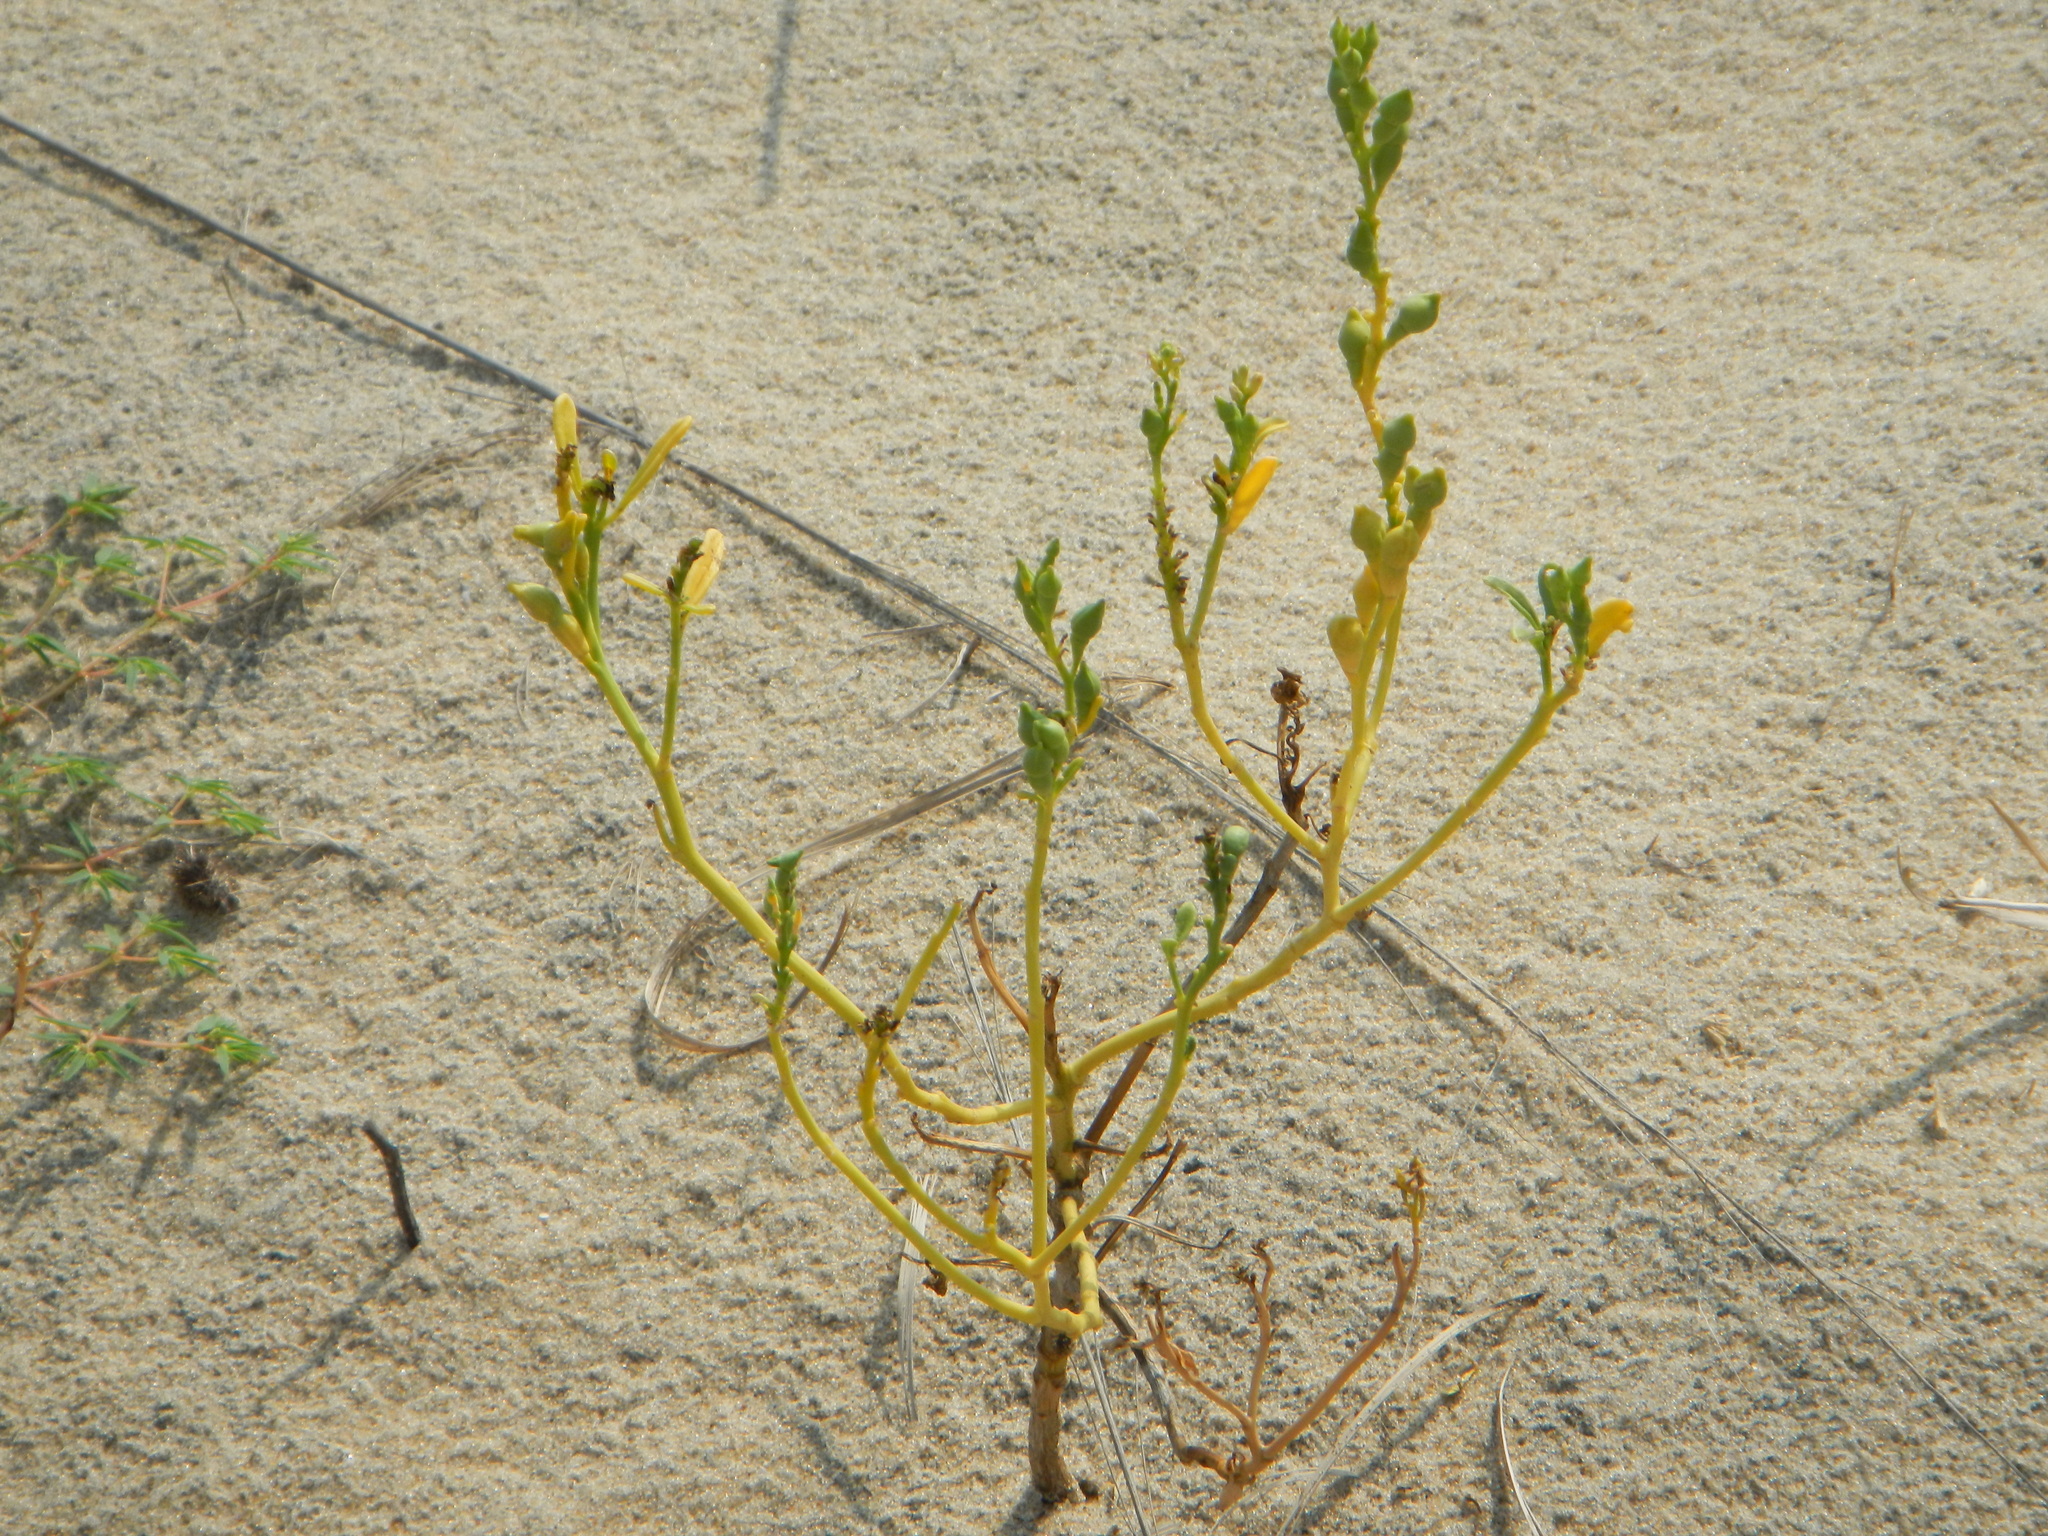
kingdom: Plantae
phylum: Tracheophyta
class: Magnoliopsida
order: Brassicales
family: Brassicaceae
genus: Cakile
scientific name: Cakile edentula
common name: American sea rocket
